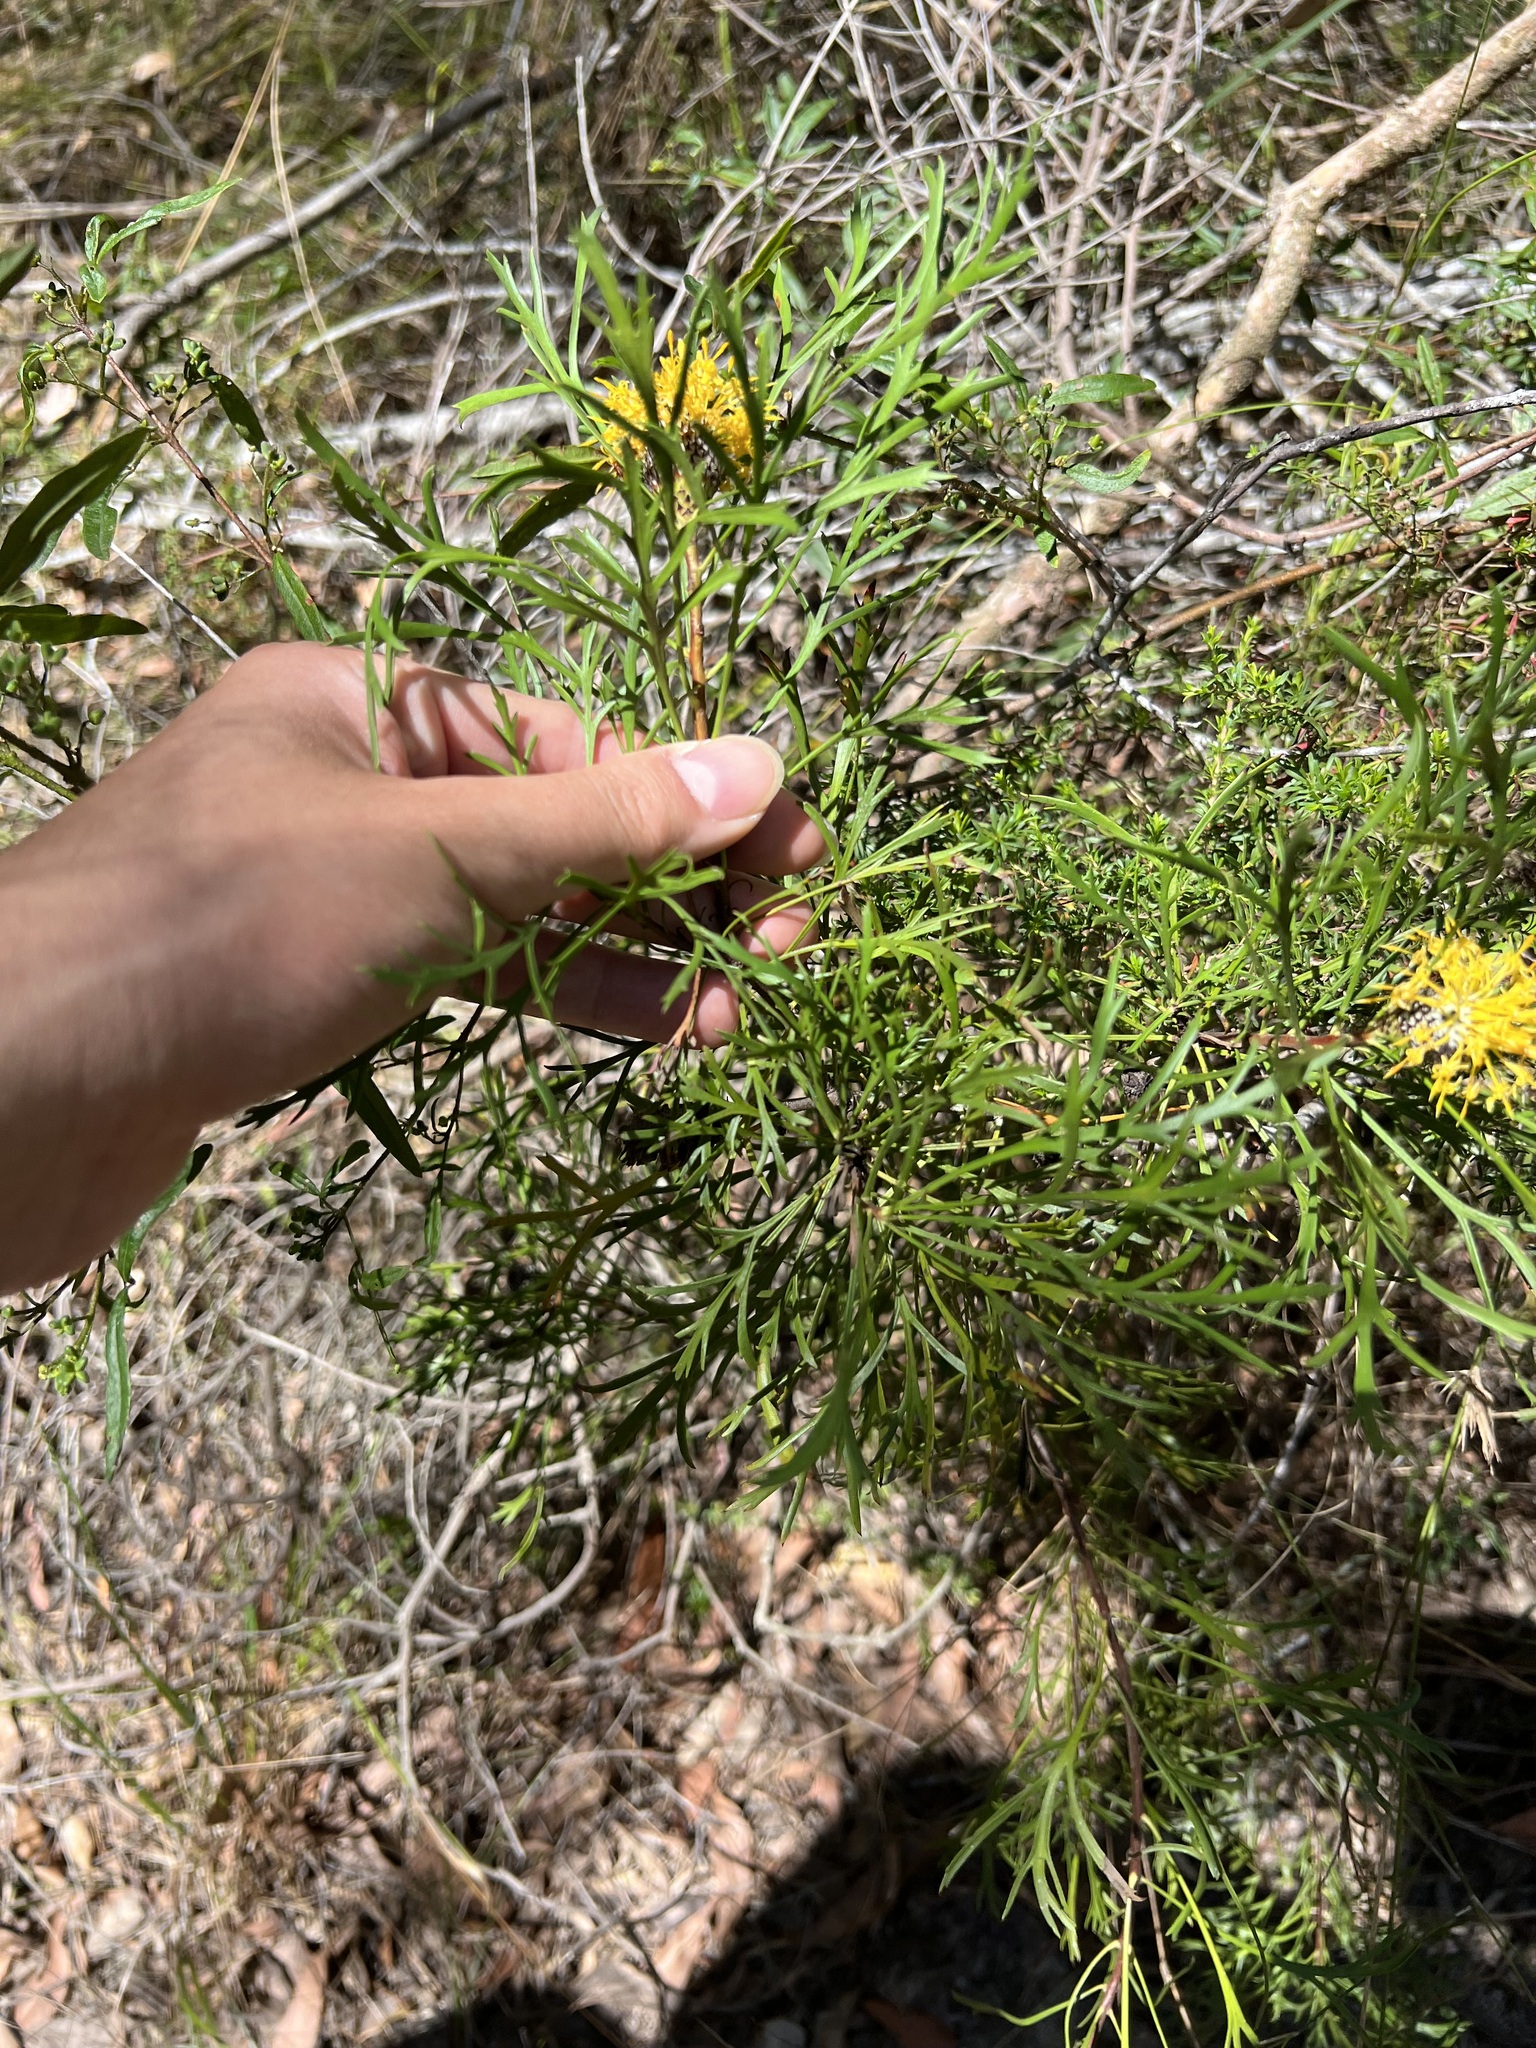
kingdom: Plantae
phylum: Tracheophyta
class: Magnoliopsida
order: Proteales
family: Proteaceae
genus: Isopogon
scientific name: Isopogon anemonifolius
